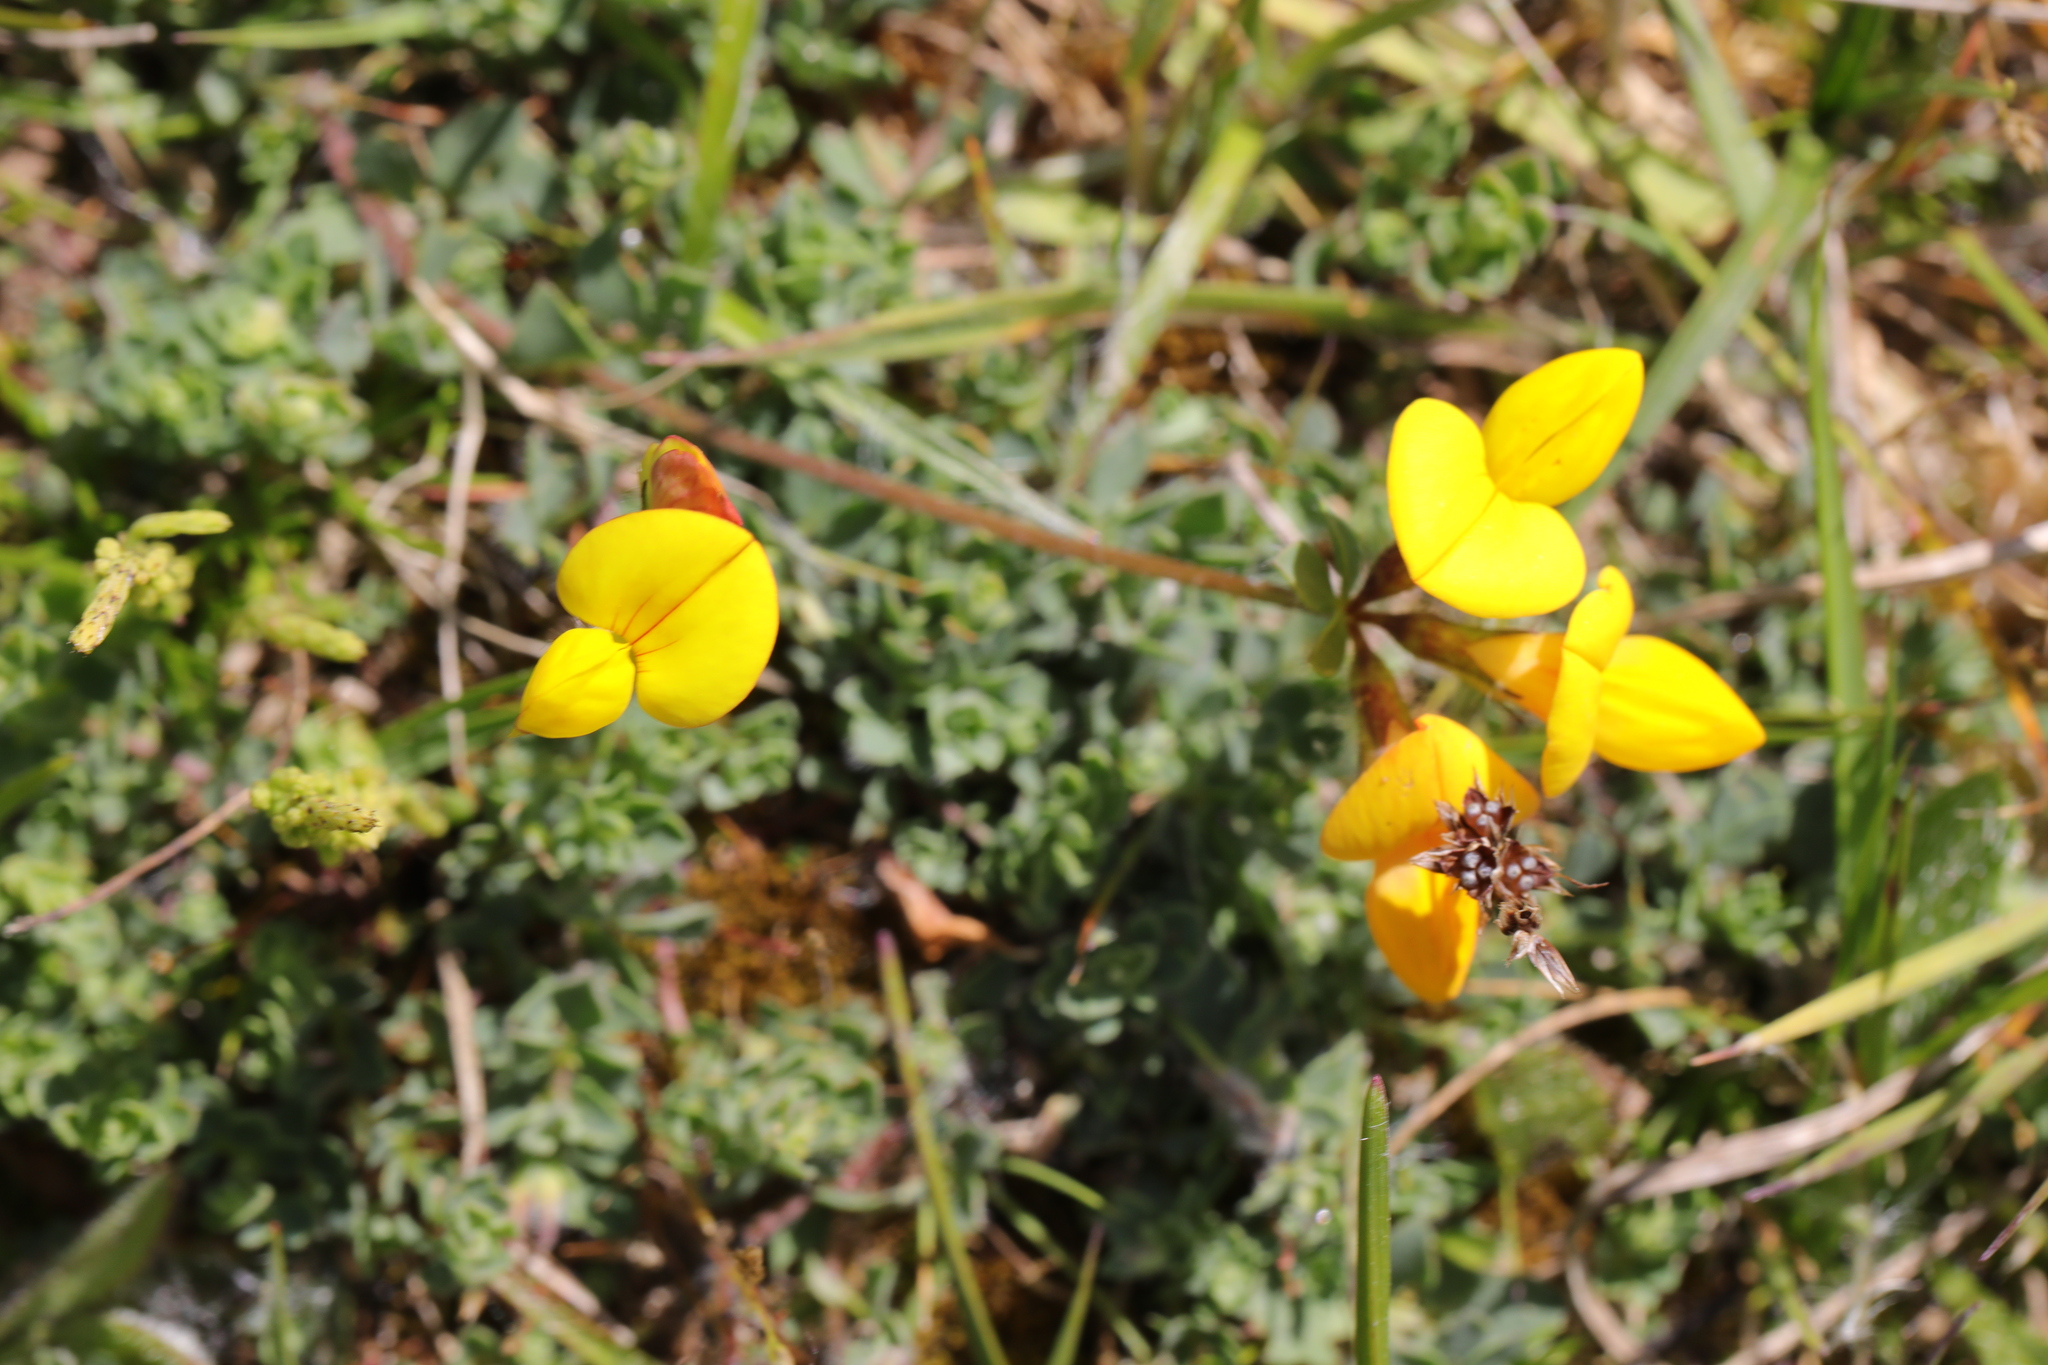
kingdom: Plantae
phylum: Tracheophyta
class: Magnoliopsida
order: Fabales
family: Fabaceae
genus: Lotus
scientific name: Lotus corniculatus
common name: Common bird's-foot-trefoil
